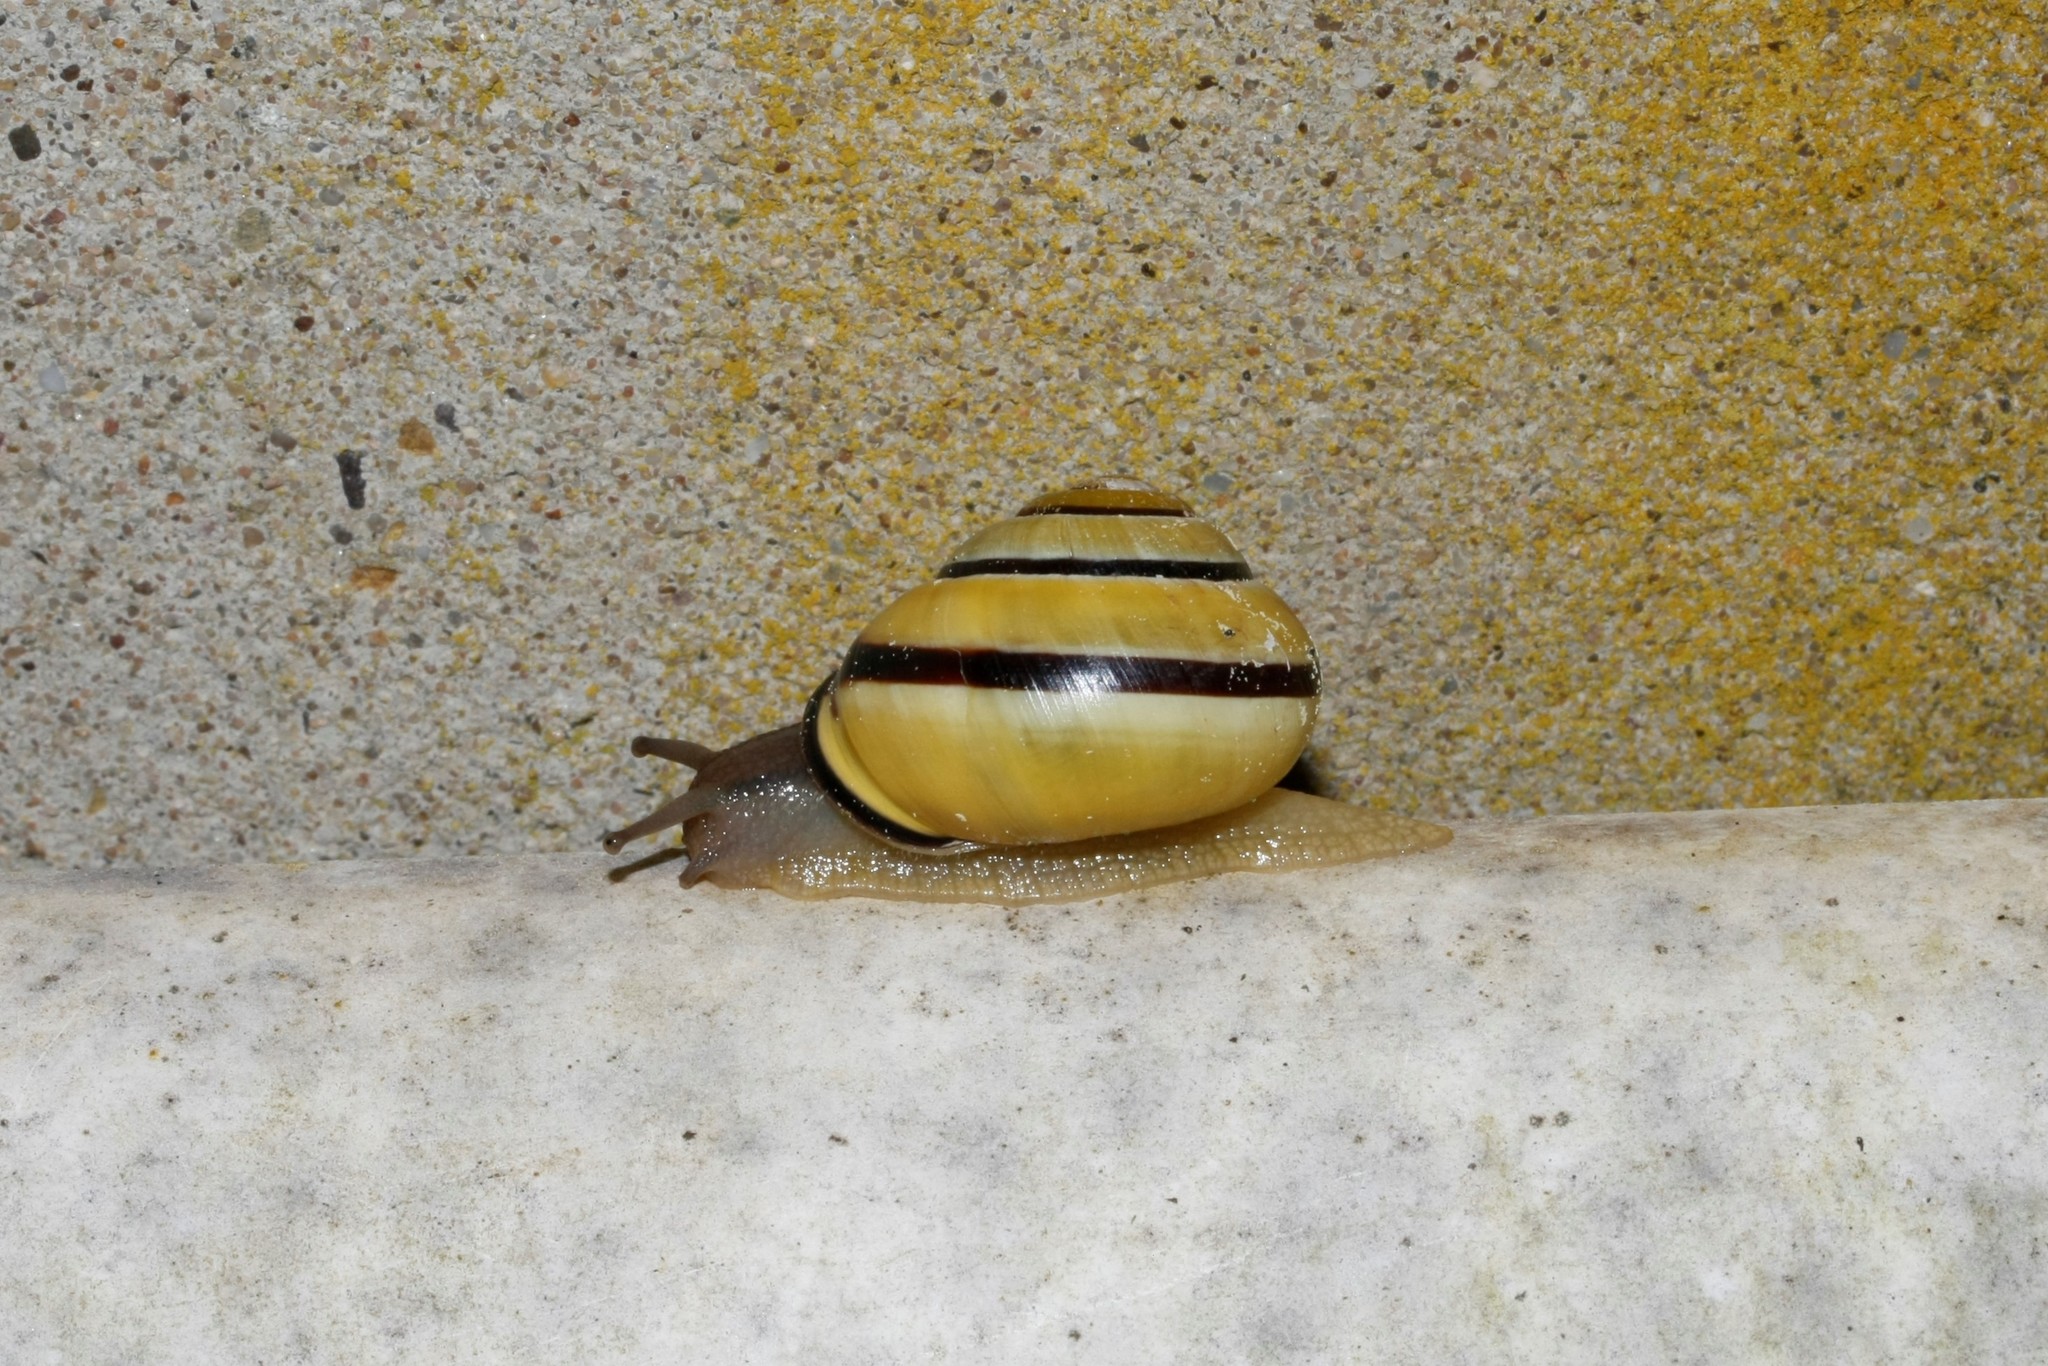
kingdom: Animalia
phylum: Mollusca
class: Gastropoda
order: Stylommatophora
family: Helicidae
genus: Cepaea
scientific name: Cepaea nemoralis
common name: Grovesnail
